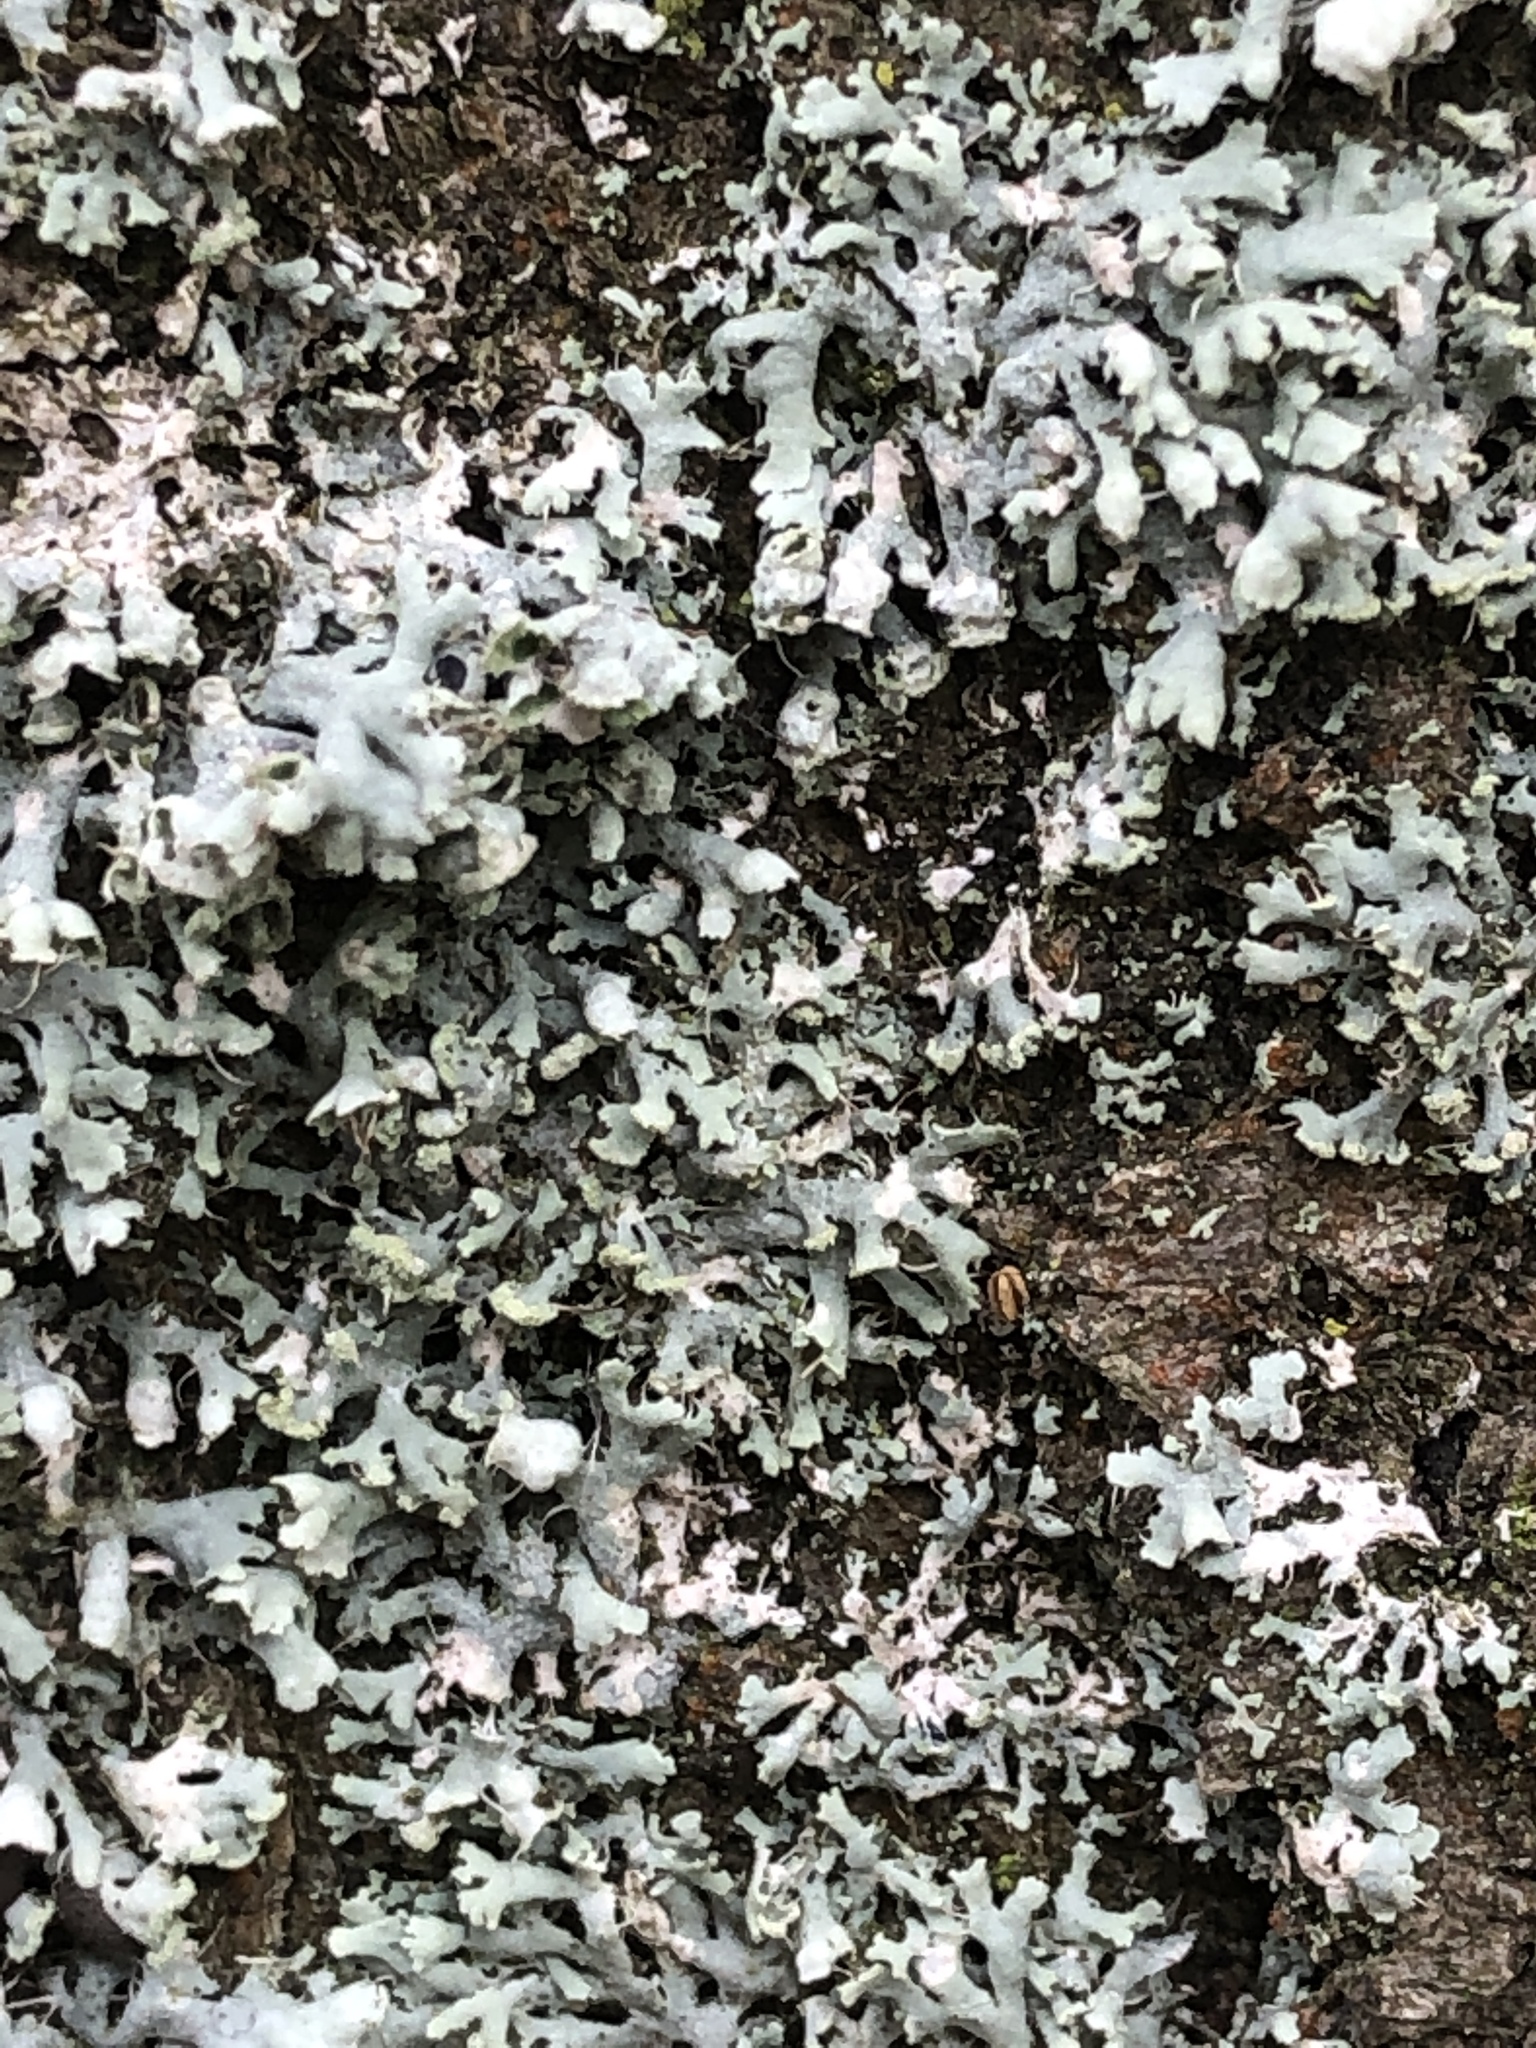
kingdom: Fungi
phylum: Ascomycota
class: Lecanoromycetes
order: Caliciales
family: Physciaceae
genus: Physcia
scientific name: Physcia adscendens
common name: Hooded rosette lichen
